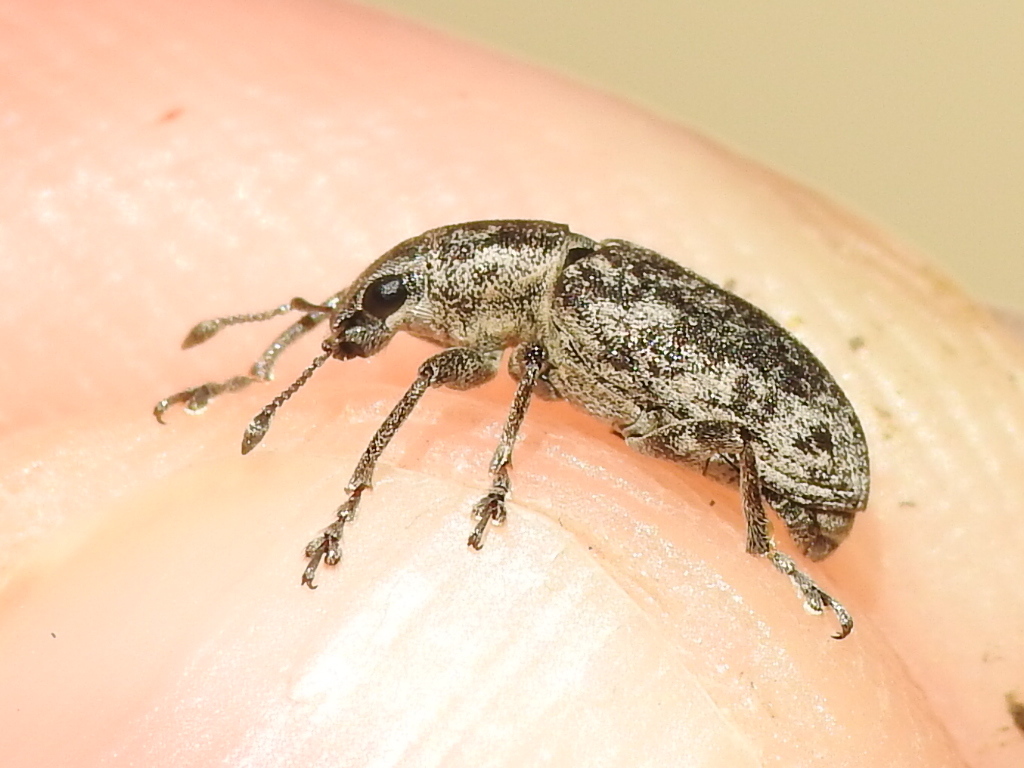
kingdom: Animalia
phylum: Arthropoda
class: Insecta
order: Coleoptera
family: Curculionidae
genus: Tanymecus
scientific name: Tanymecus confusus
